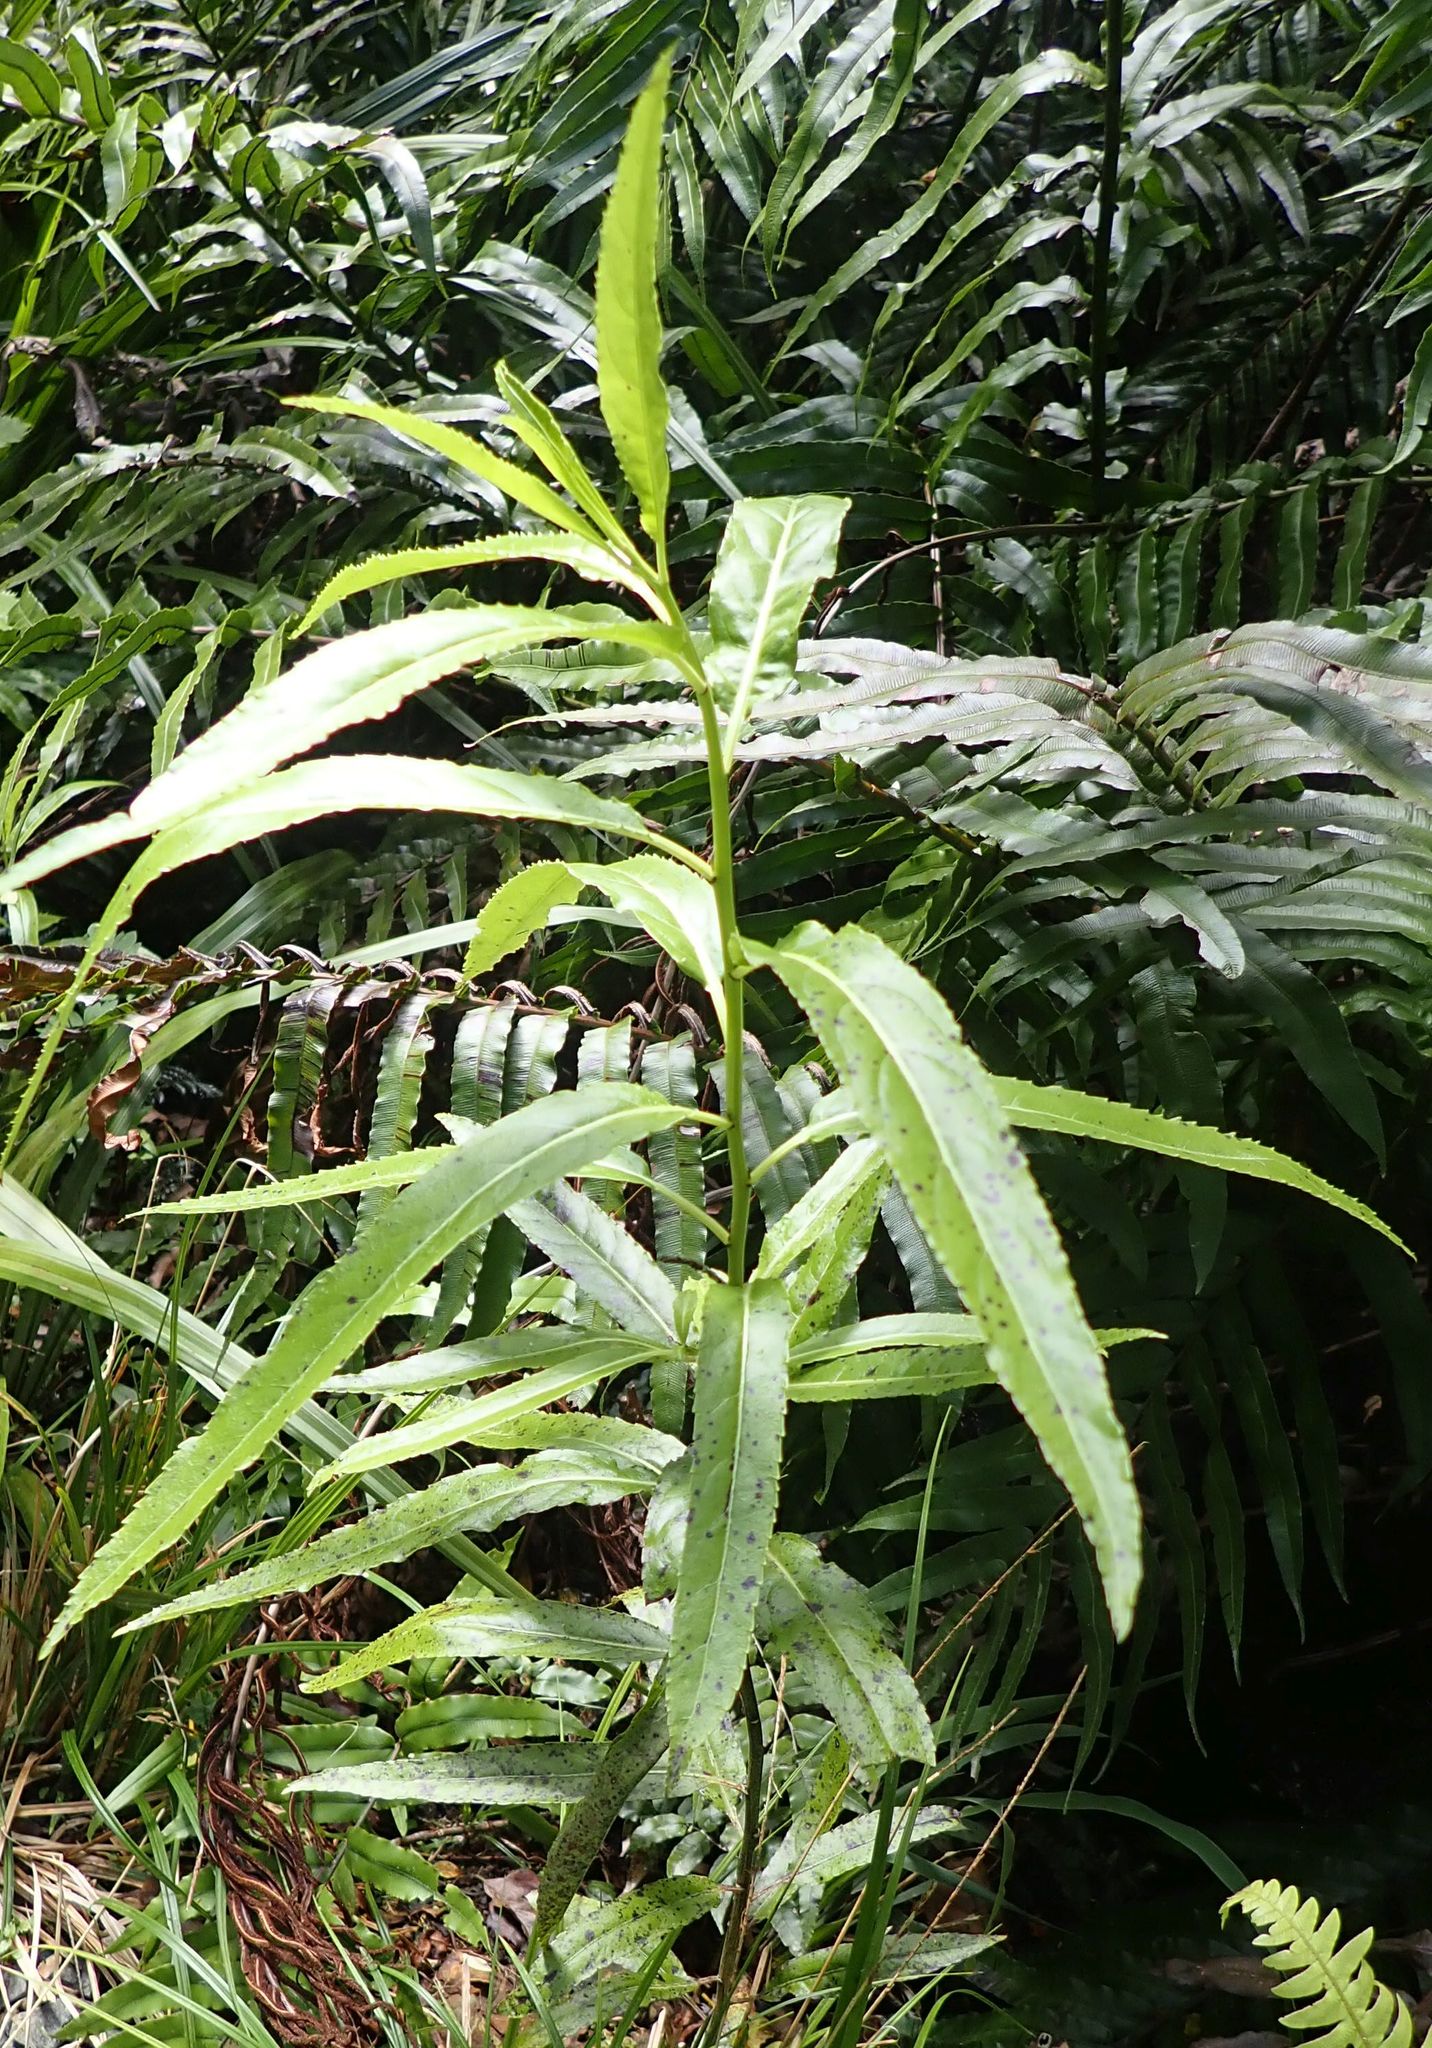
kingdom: Plantae
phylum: Tracheophyta
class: Magnoliopsida
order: Malpighiales
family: Violaceae
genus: Melicytus
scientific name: Melicytus lanceolatus
